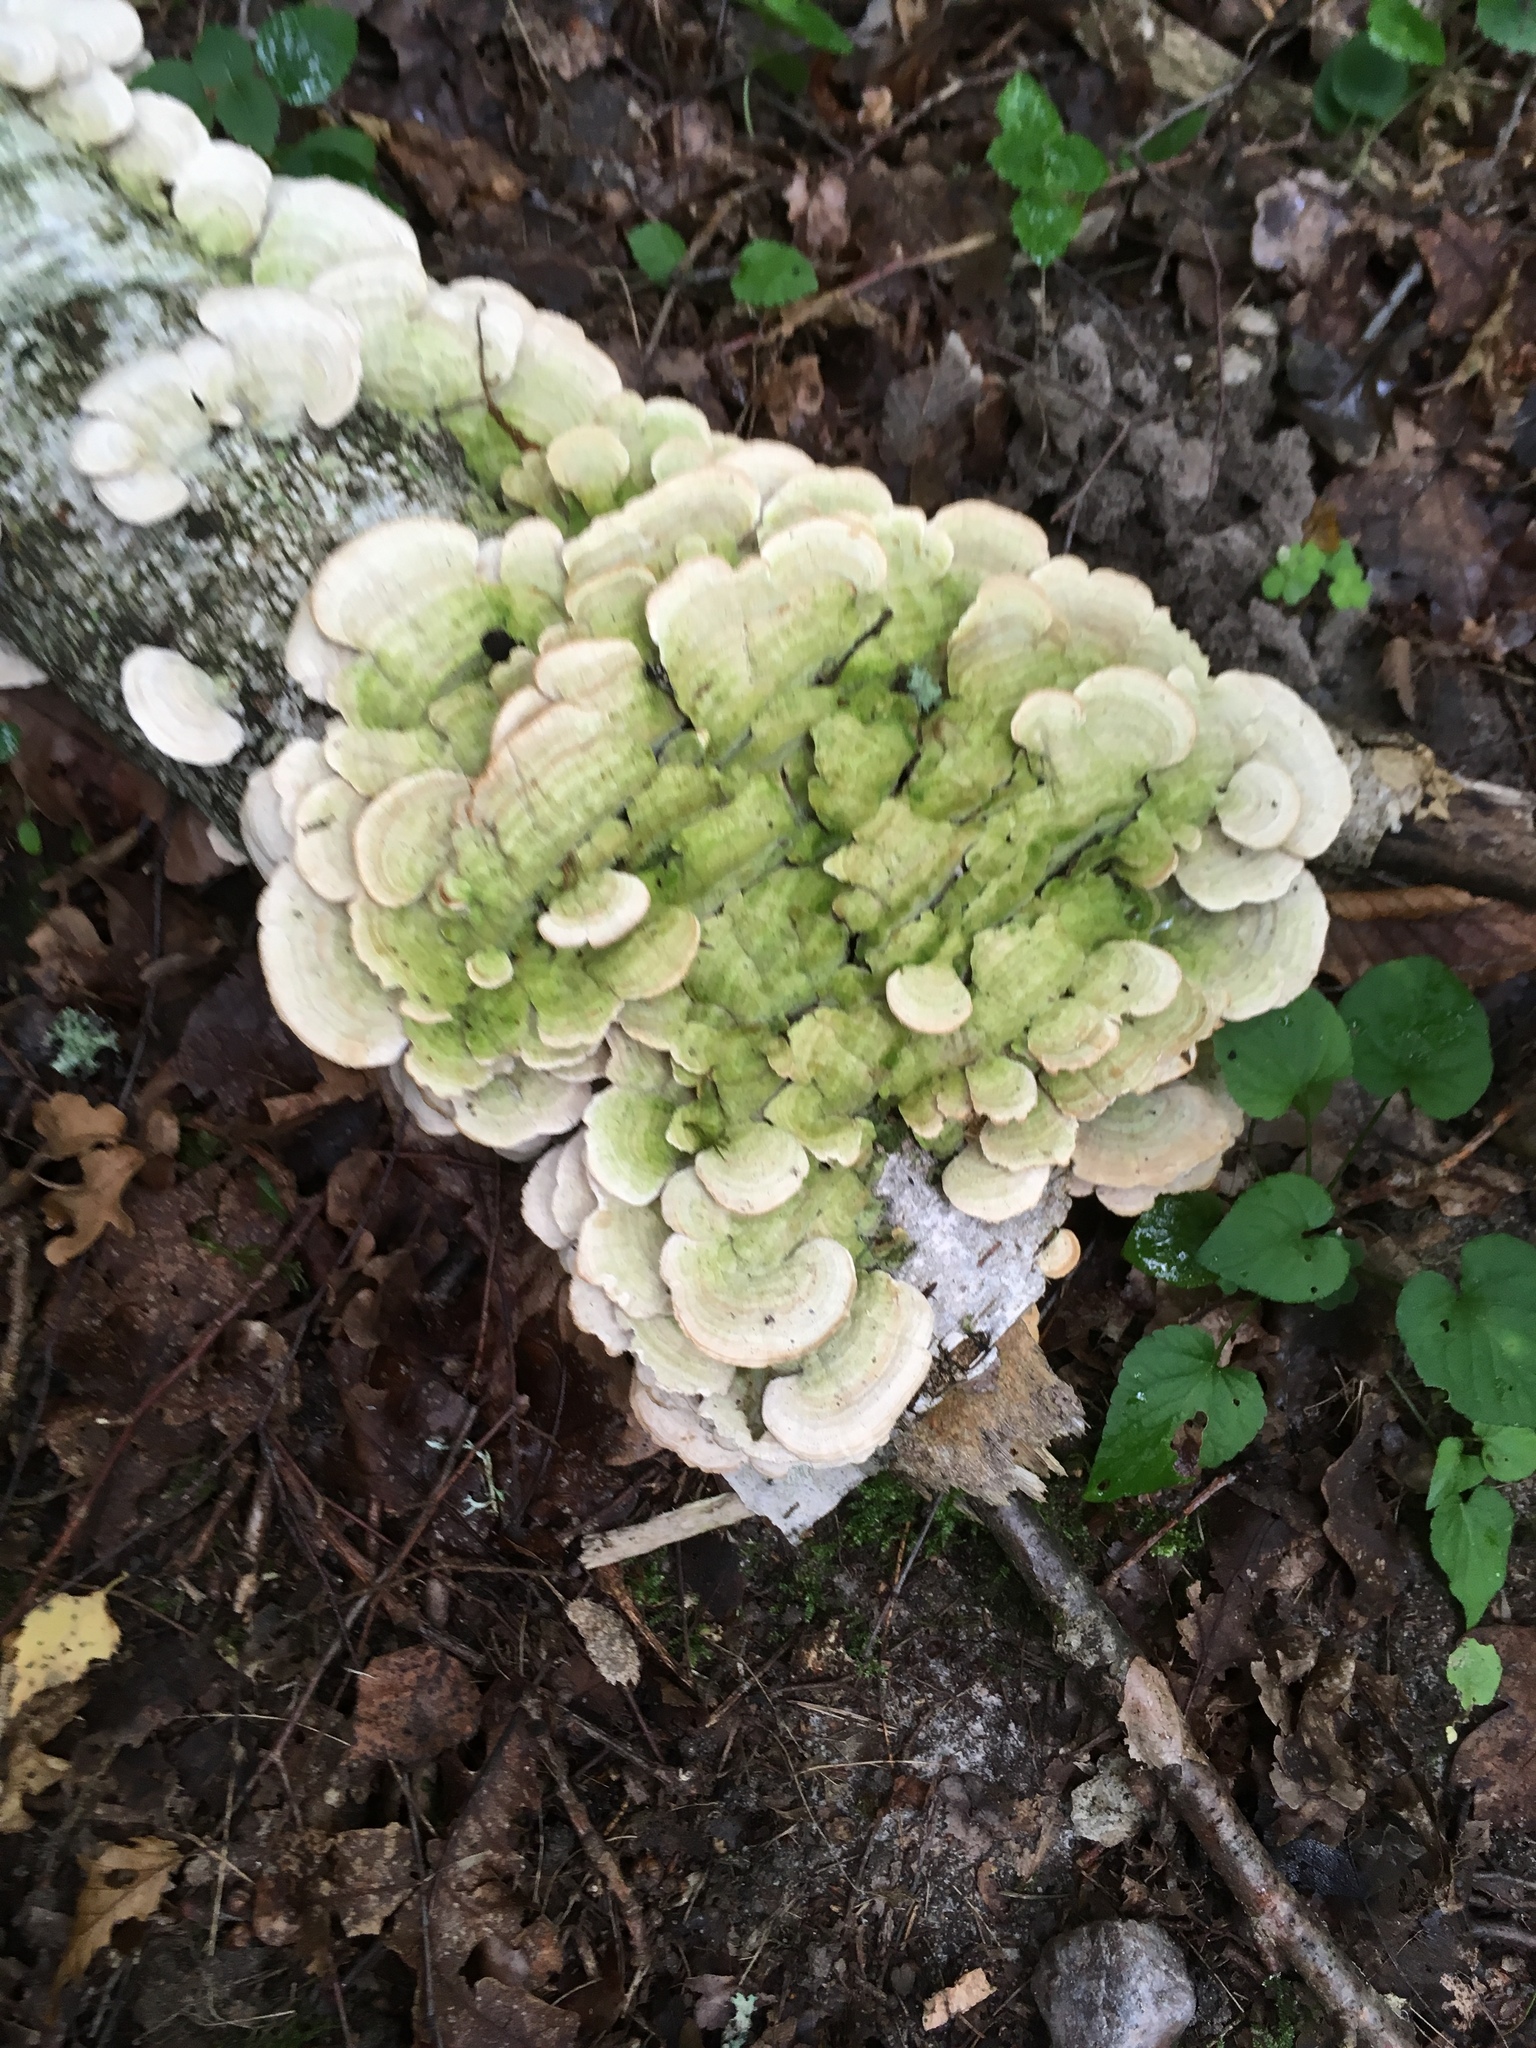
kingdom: Fungi
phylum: Basidiomycota
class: Agaricomycetes
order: Hymenochaetales
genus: Trichaptum
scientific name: Trichaptum biforme
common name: Violet-toothed polypore
